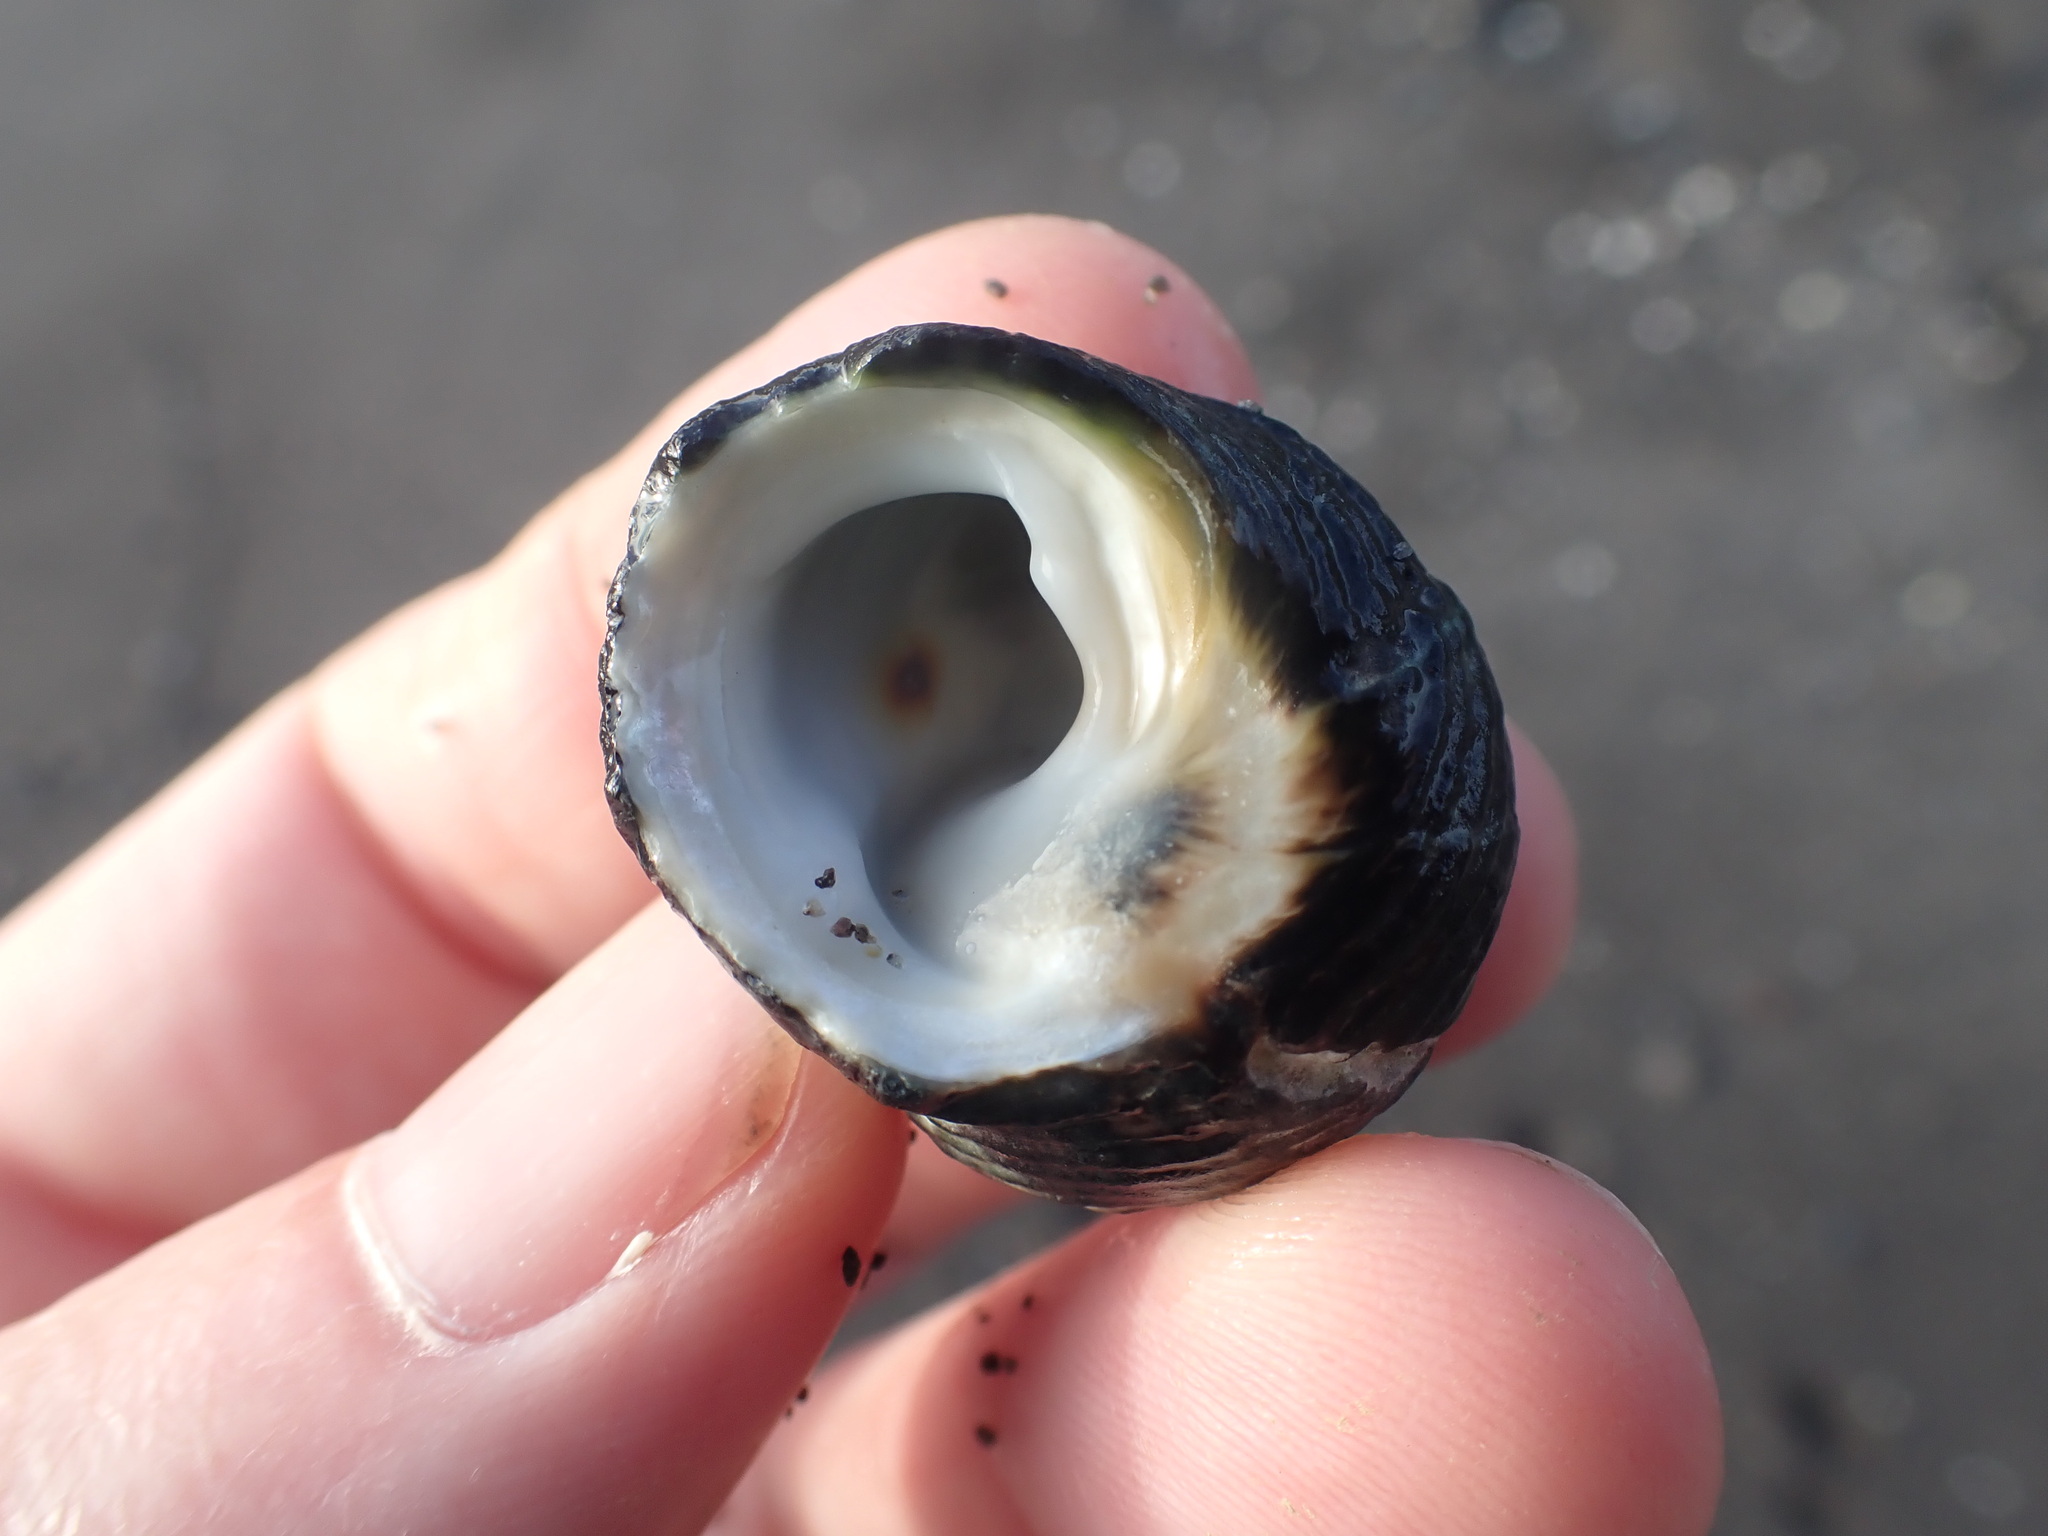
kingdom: Animalia
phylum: Mollusca
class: Gastropoda
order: Trochida
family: Trochidae
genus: Diloma
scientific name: Diloma zelandicum
